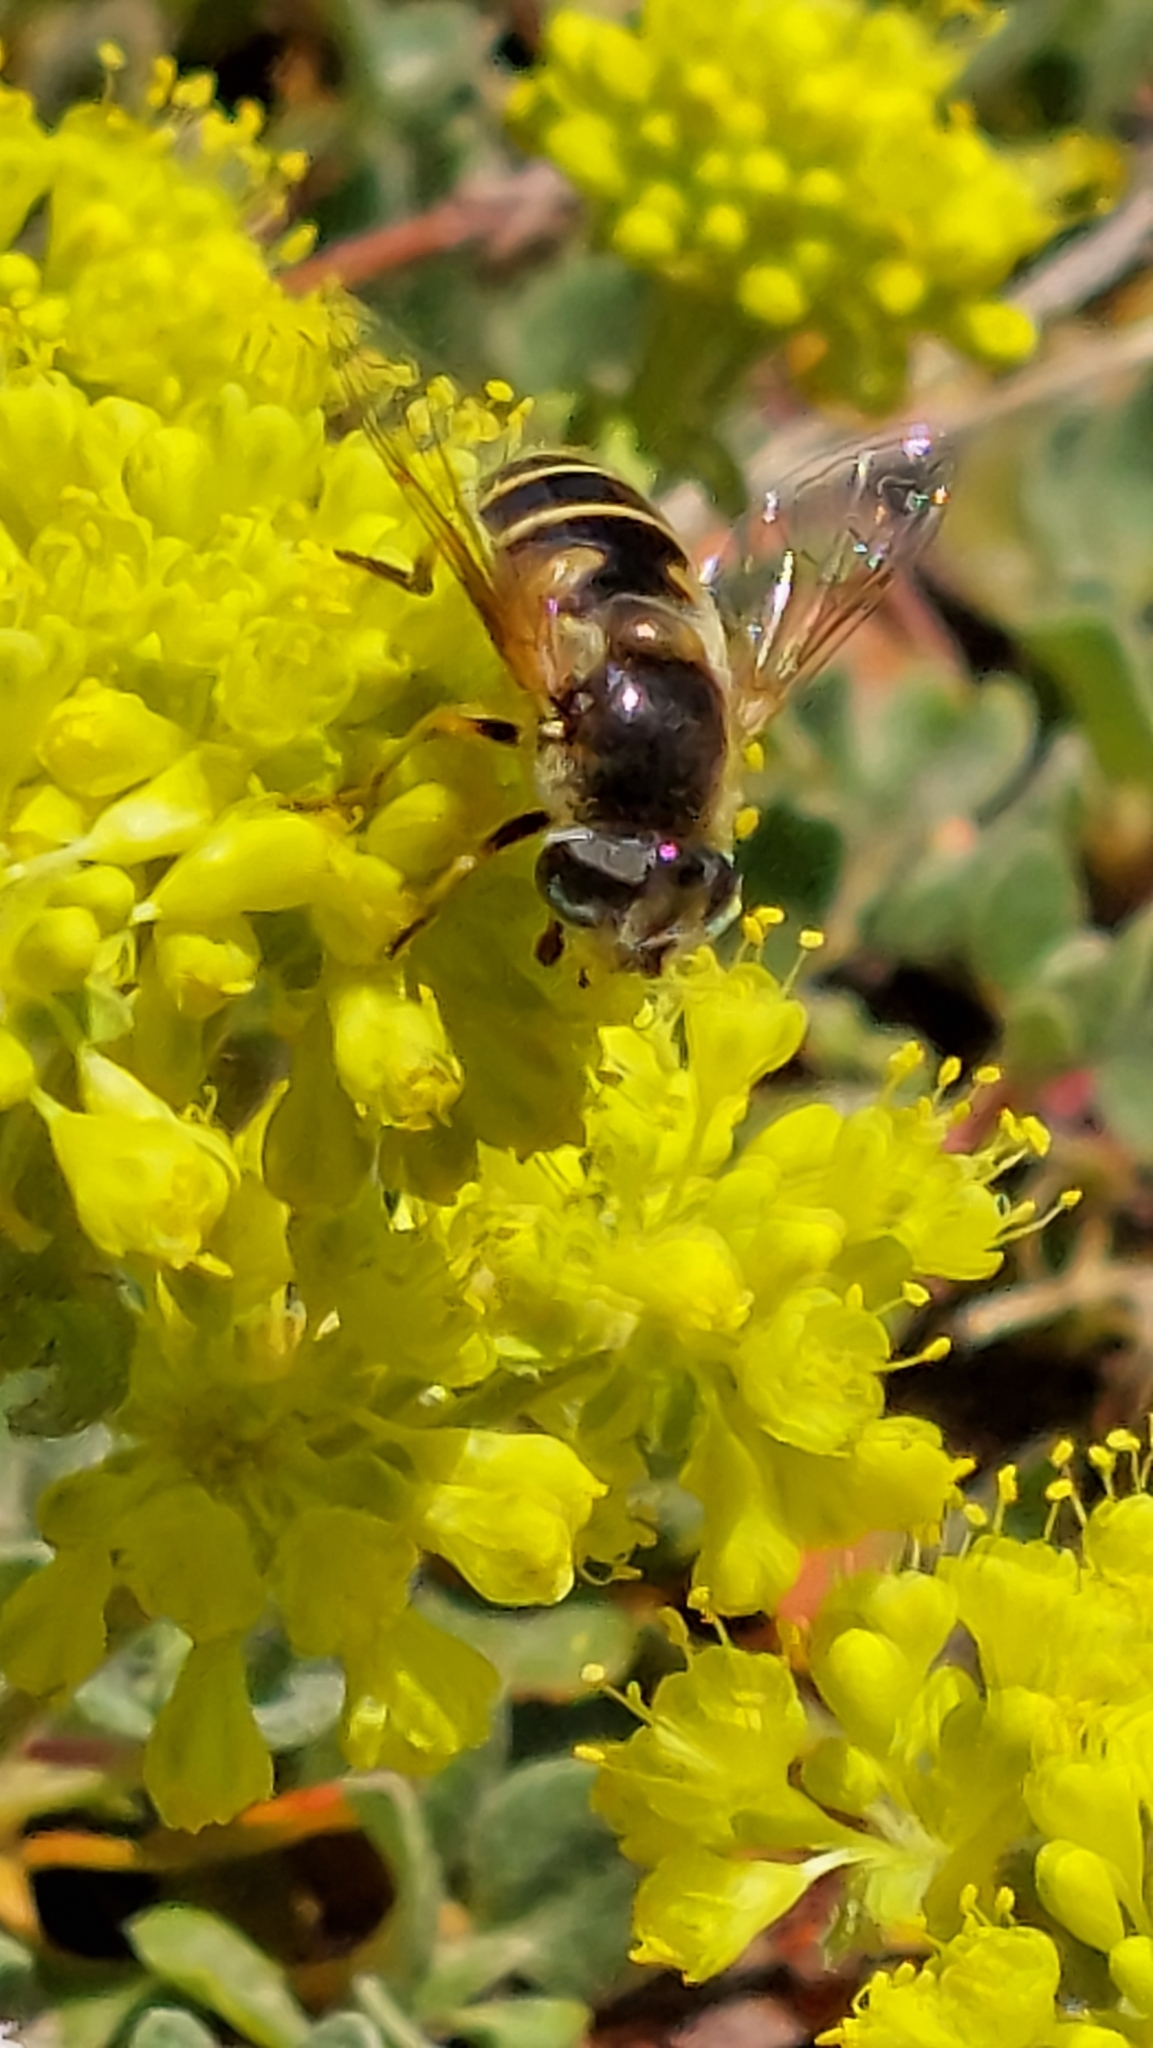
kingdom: Animalia
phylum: Arthropoda
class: Insecta
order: Diptera
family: Syrphidae
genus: Eristalis
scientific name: Eristalis hirta
